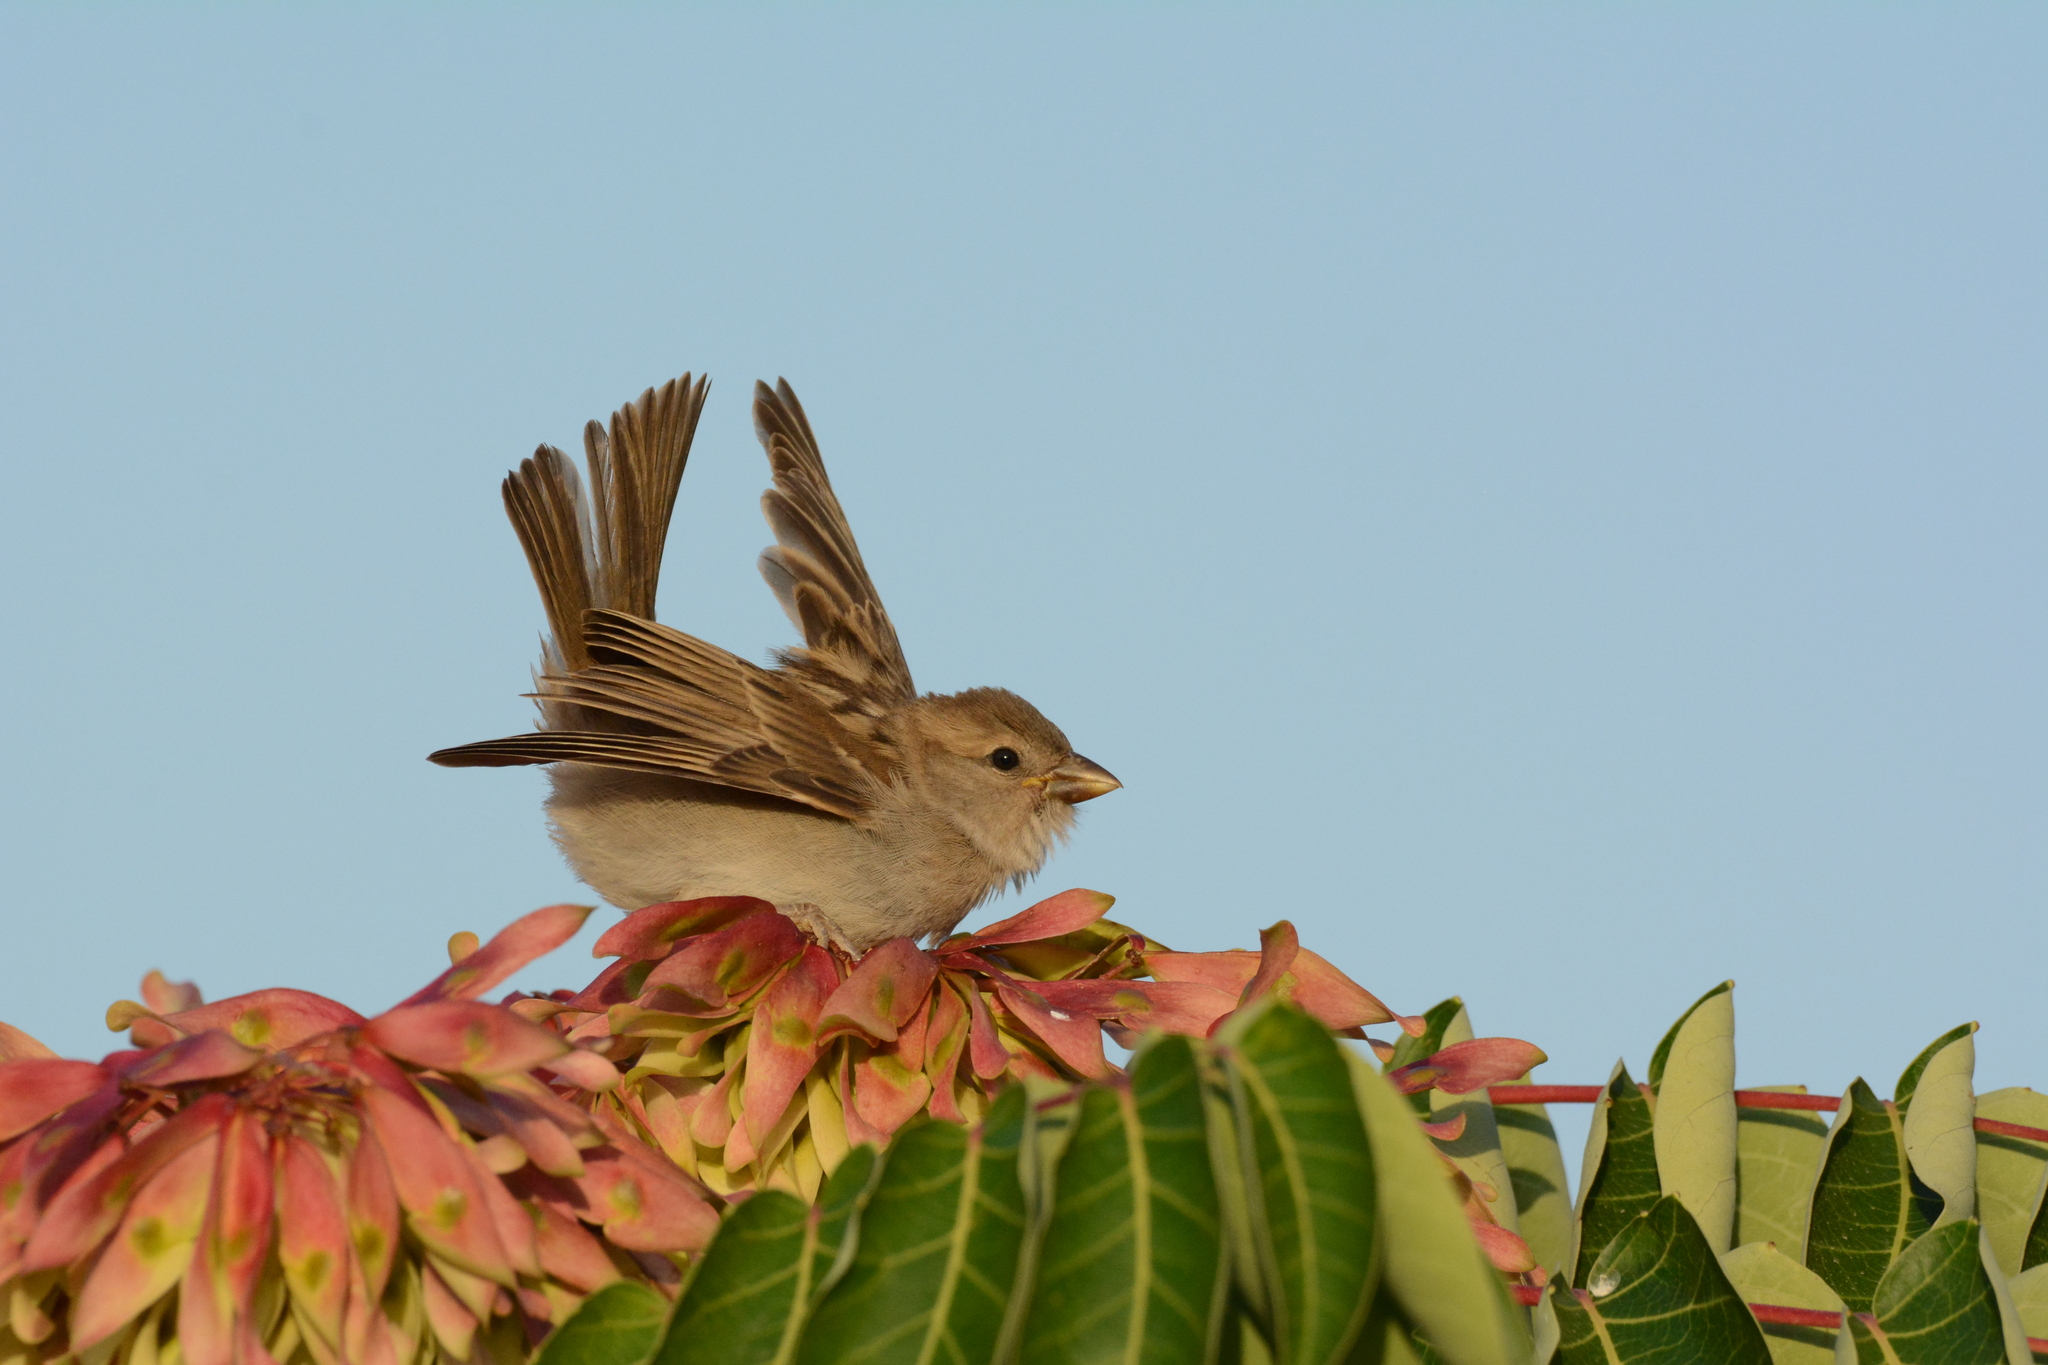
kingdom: Animalia
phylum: Chordata
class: Aves
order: Passeriformes
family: Passeridae
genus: Passer
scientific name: Passer domesticus
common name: House sparrow
